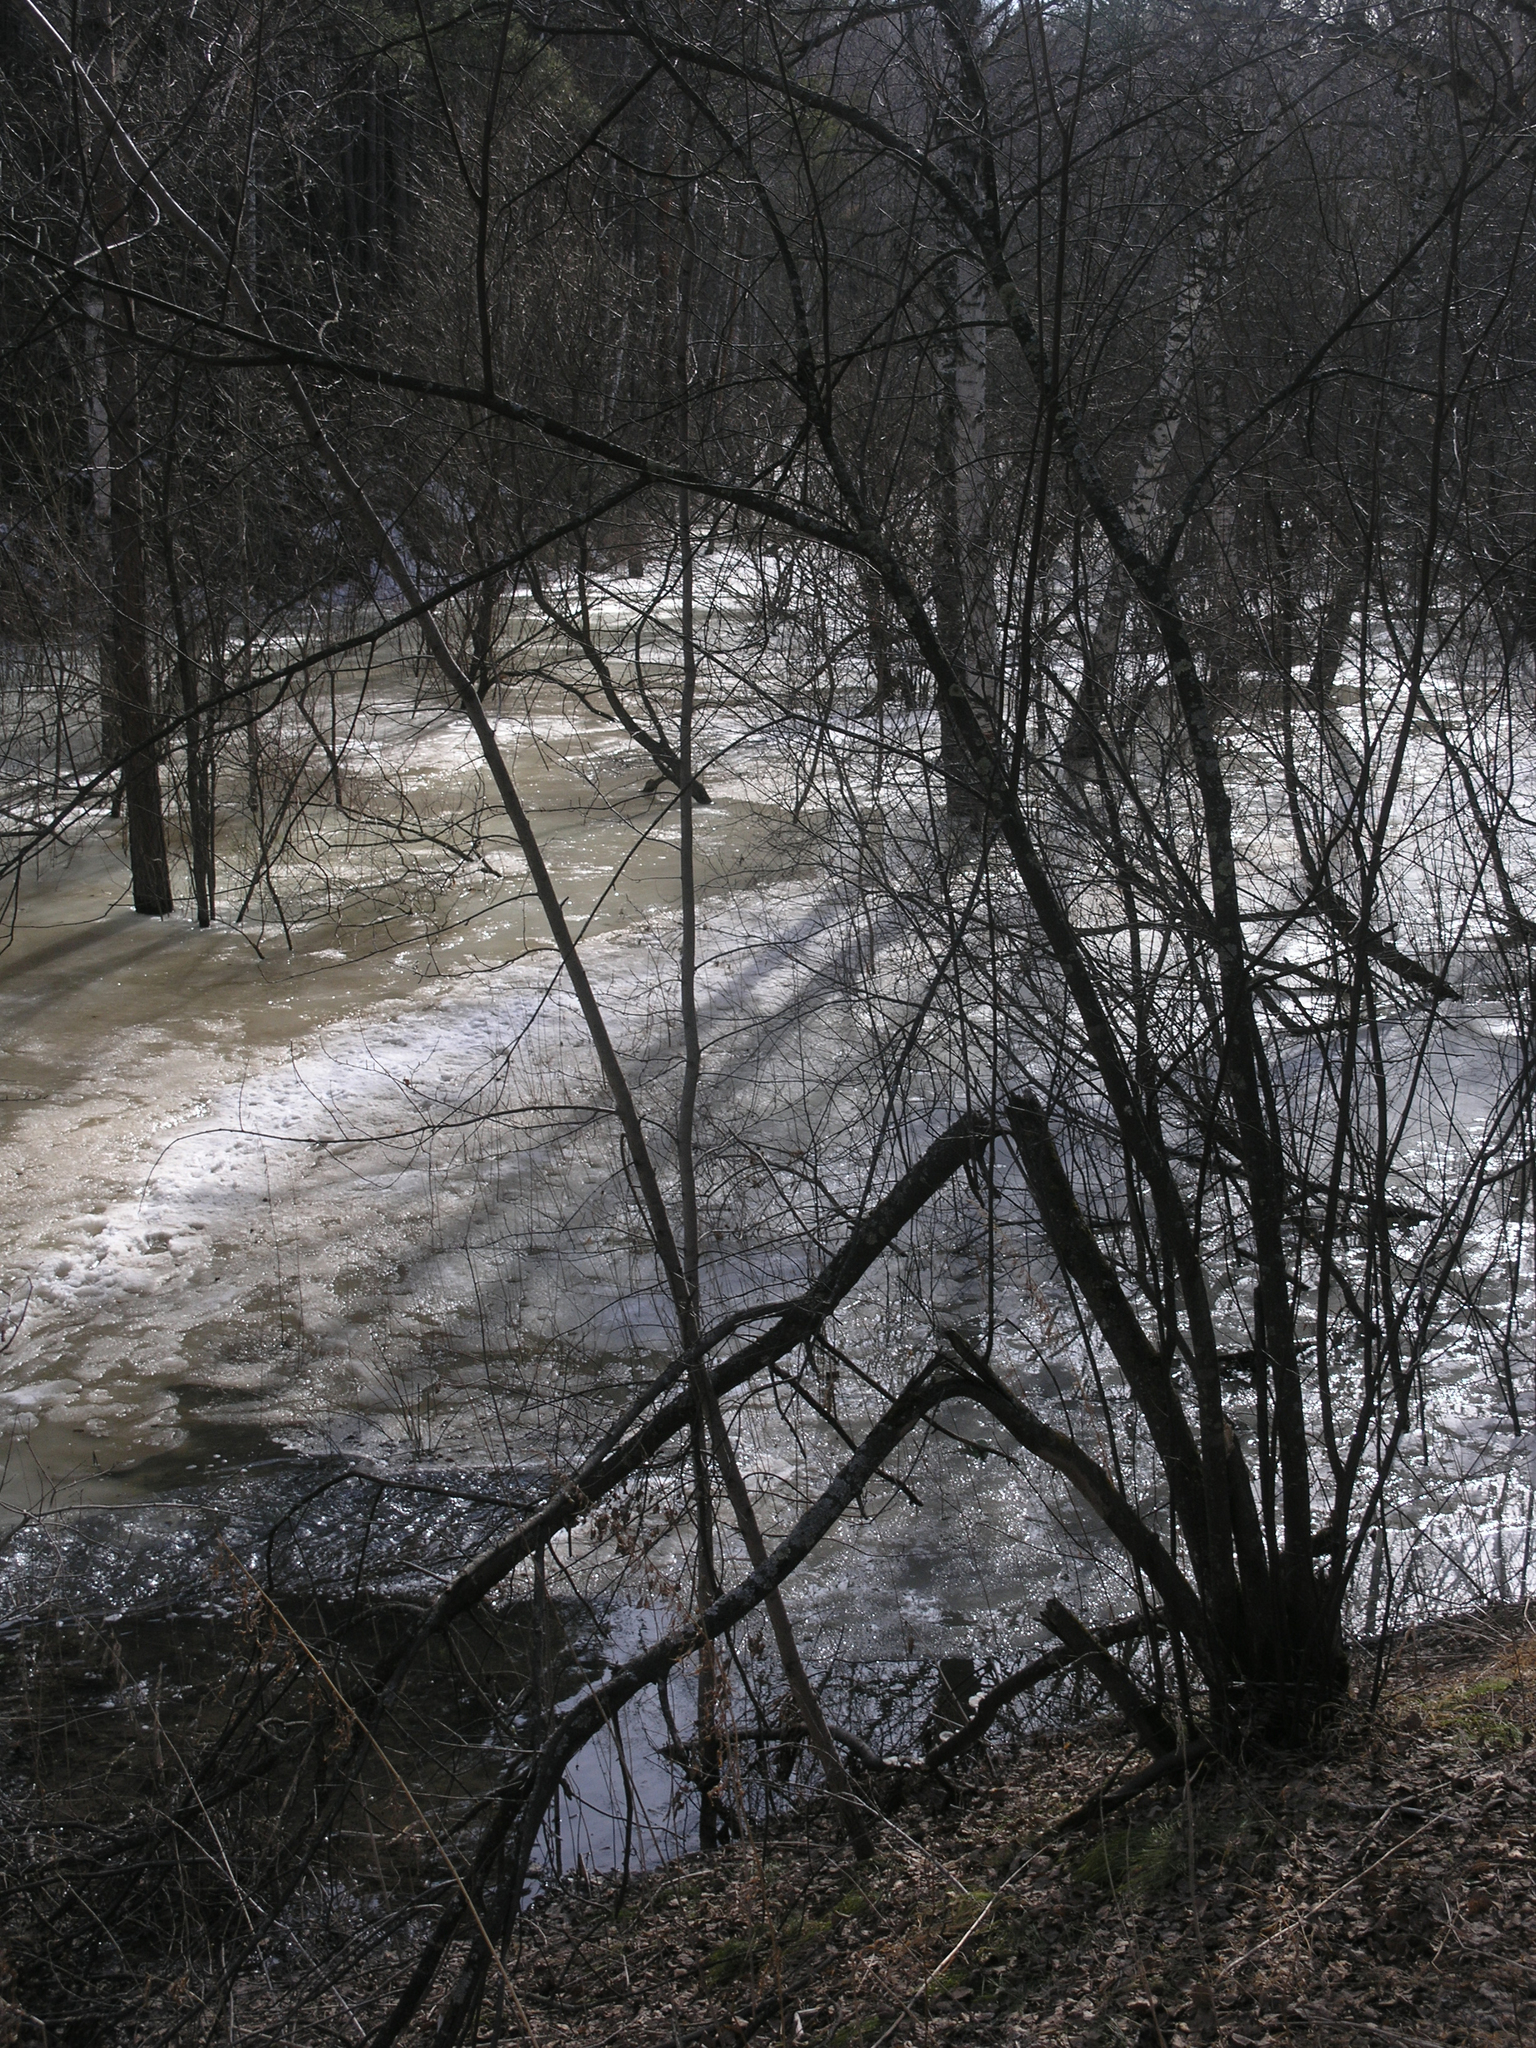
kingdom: Plantae
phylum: Tracheophyta
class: Magnoliopsida
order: Rosales
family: Rosaceae
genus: Prunus
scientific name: Prunus padus
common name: Bird cherry
